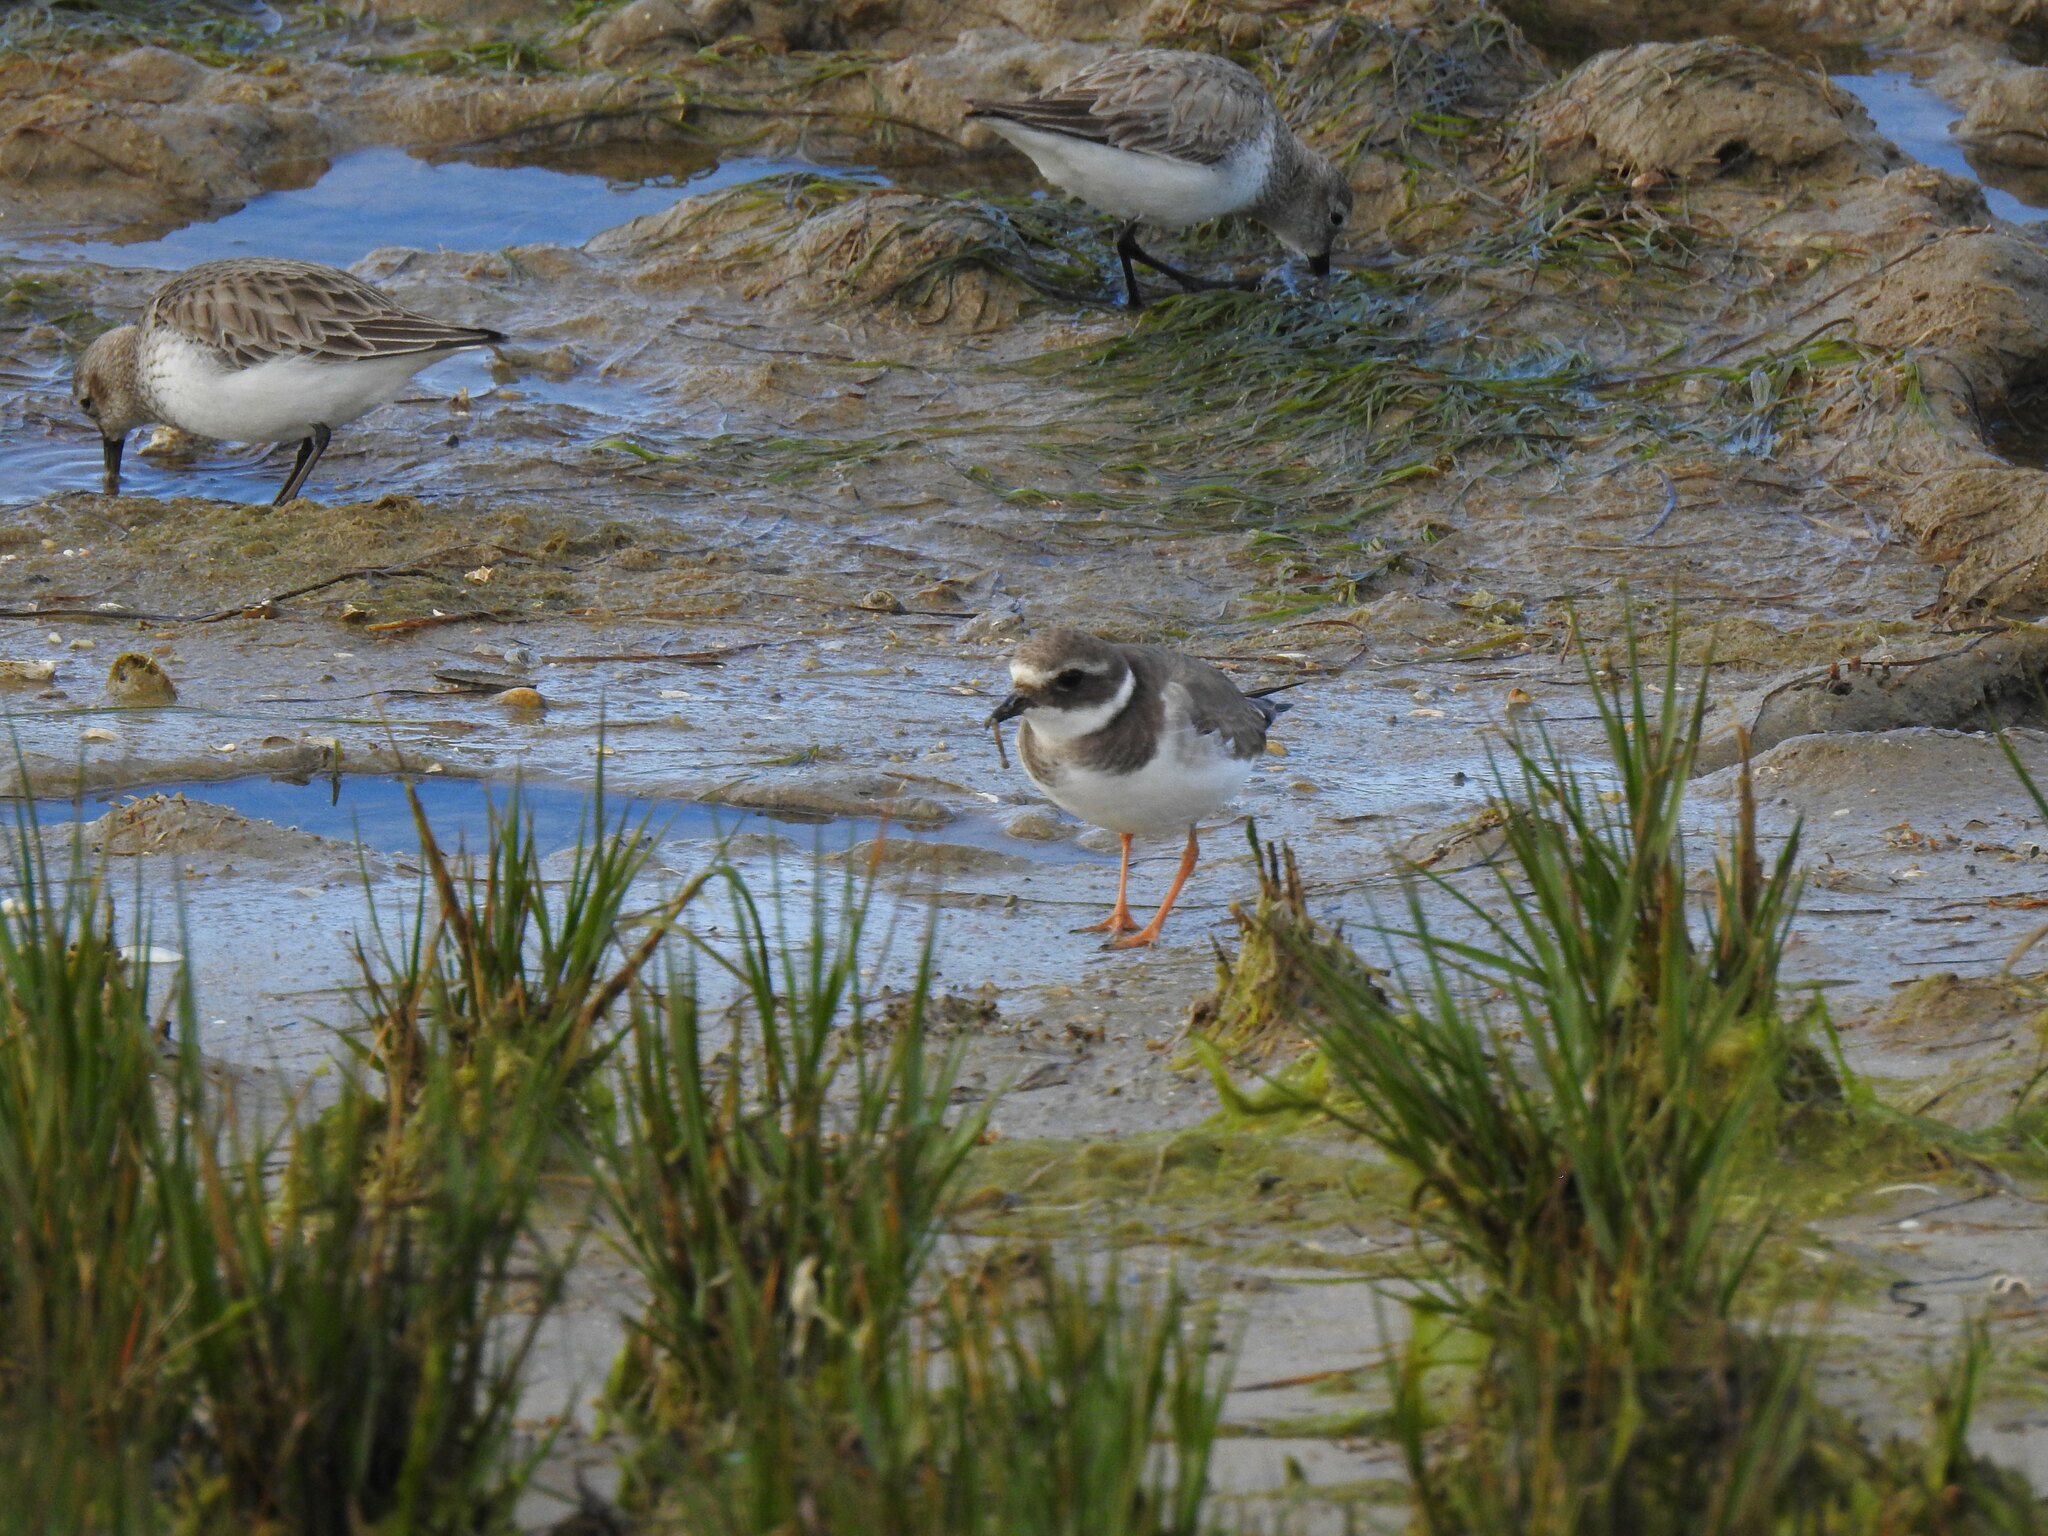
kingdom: Animalia
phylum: Chordata
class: Aves
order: Charadriiformes
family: Charadriidae
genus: Charadrius
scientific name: Charadrius hiaticula
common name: Common ringed plover
